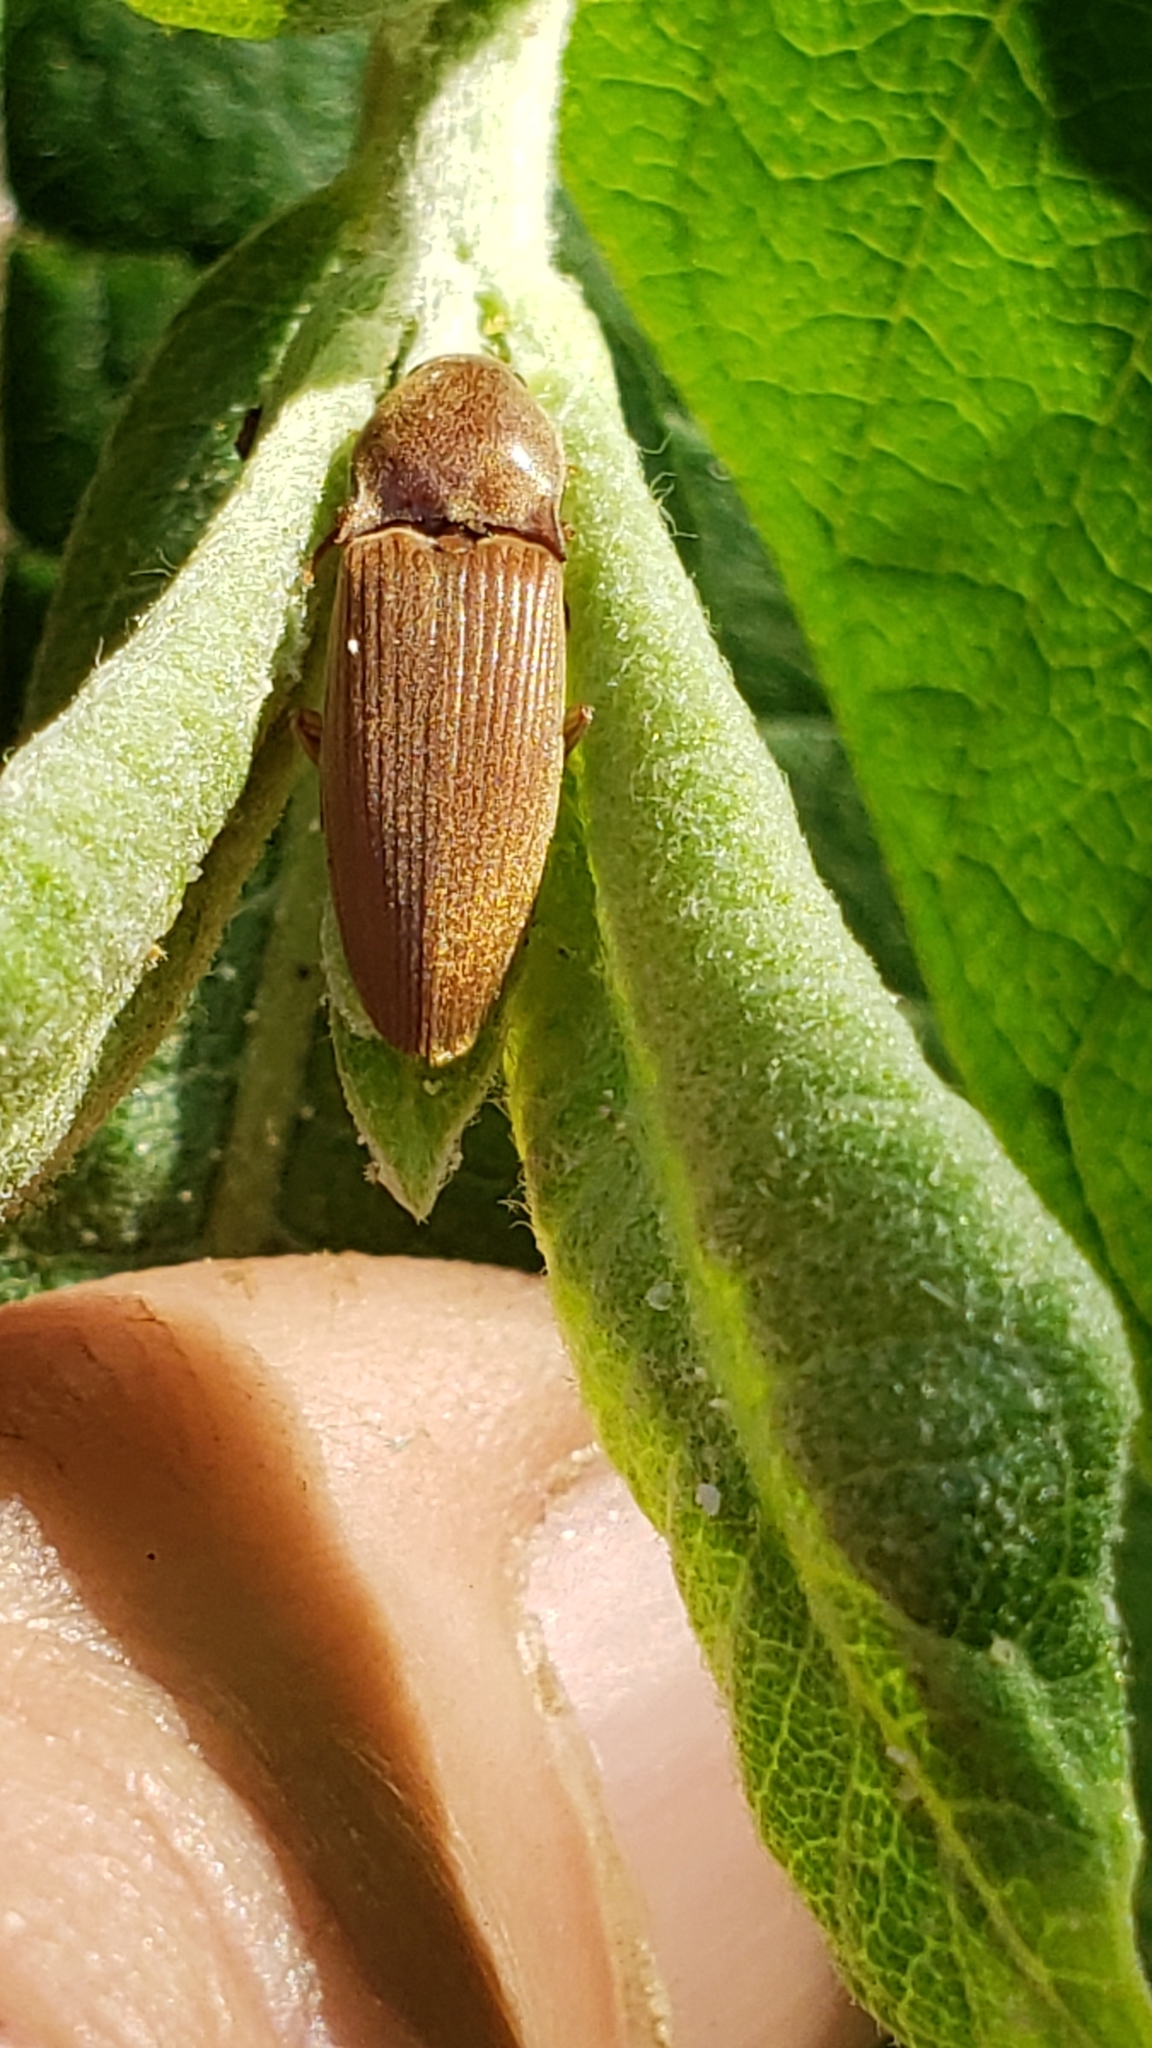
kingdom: Animalia
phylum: Arthropoda
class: Insecta
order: Coleoptera
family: Elateridae
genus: Monocrepidius
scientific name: Monocrepidius lividus
